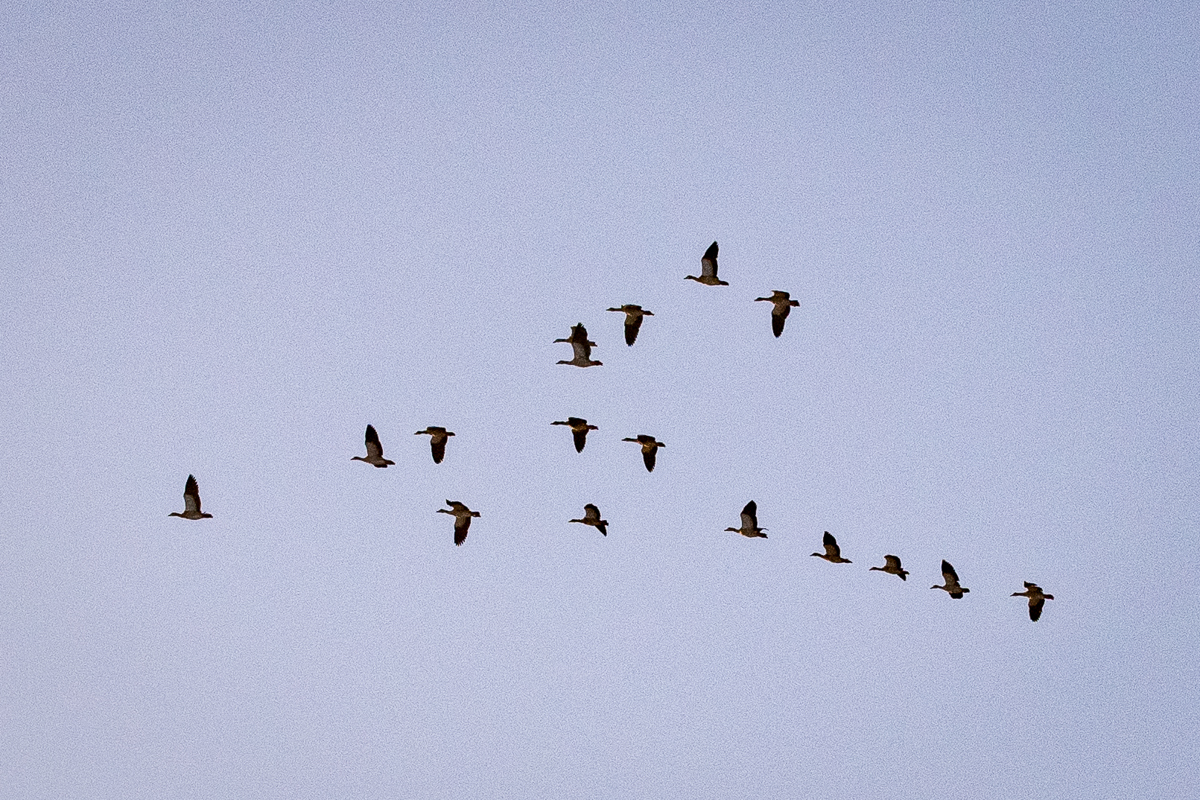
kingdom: Animalia
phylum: Chordata
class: Aves
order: Anseriformes
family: Anatidae
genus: Alopochen
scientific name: Alopochen aegyptiaca
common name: Egyptian goose
